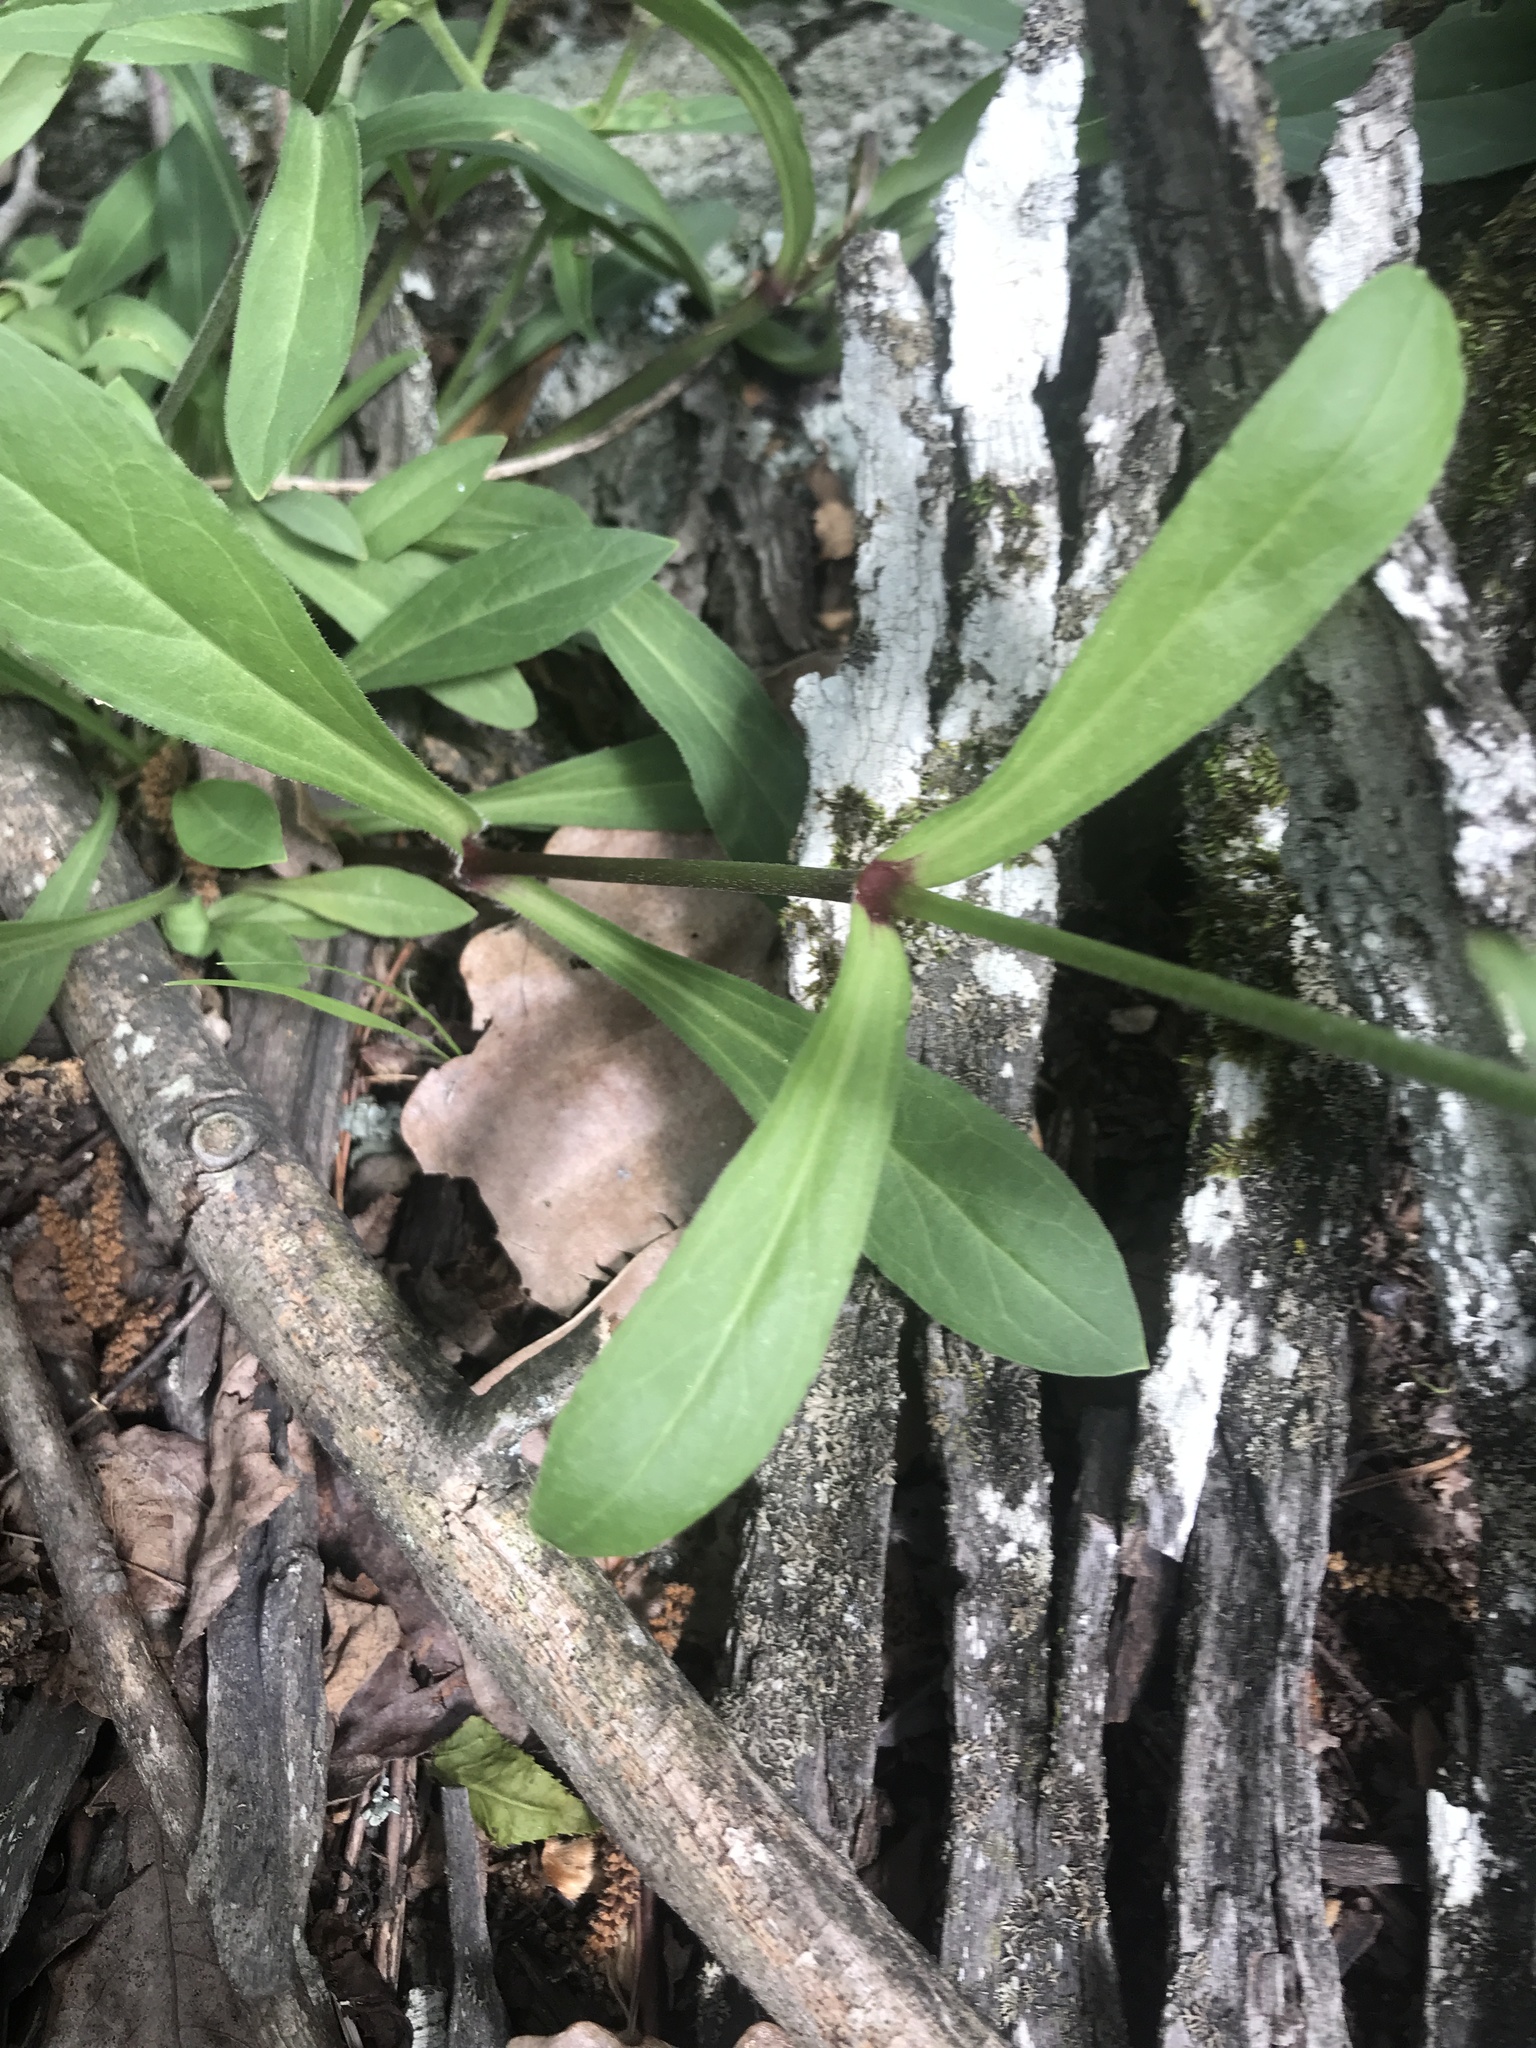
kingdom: Plantae
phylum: Tracheophyta
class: Magnoliopsida
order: Caryophyllales
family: Caryophyllaceae
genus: Silene
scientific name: Silene virginica
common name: Fire-pink
